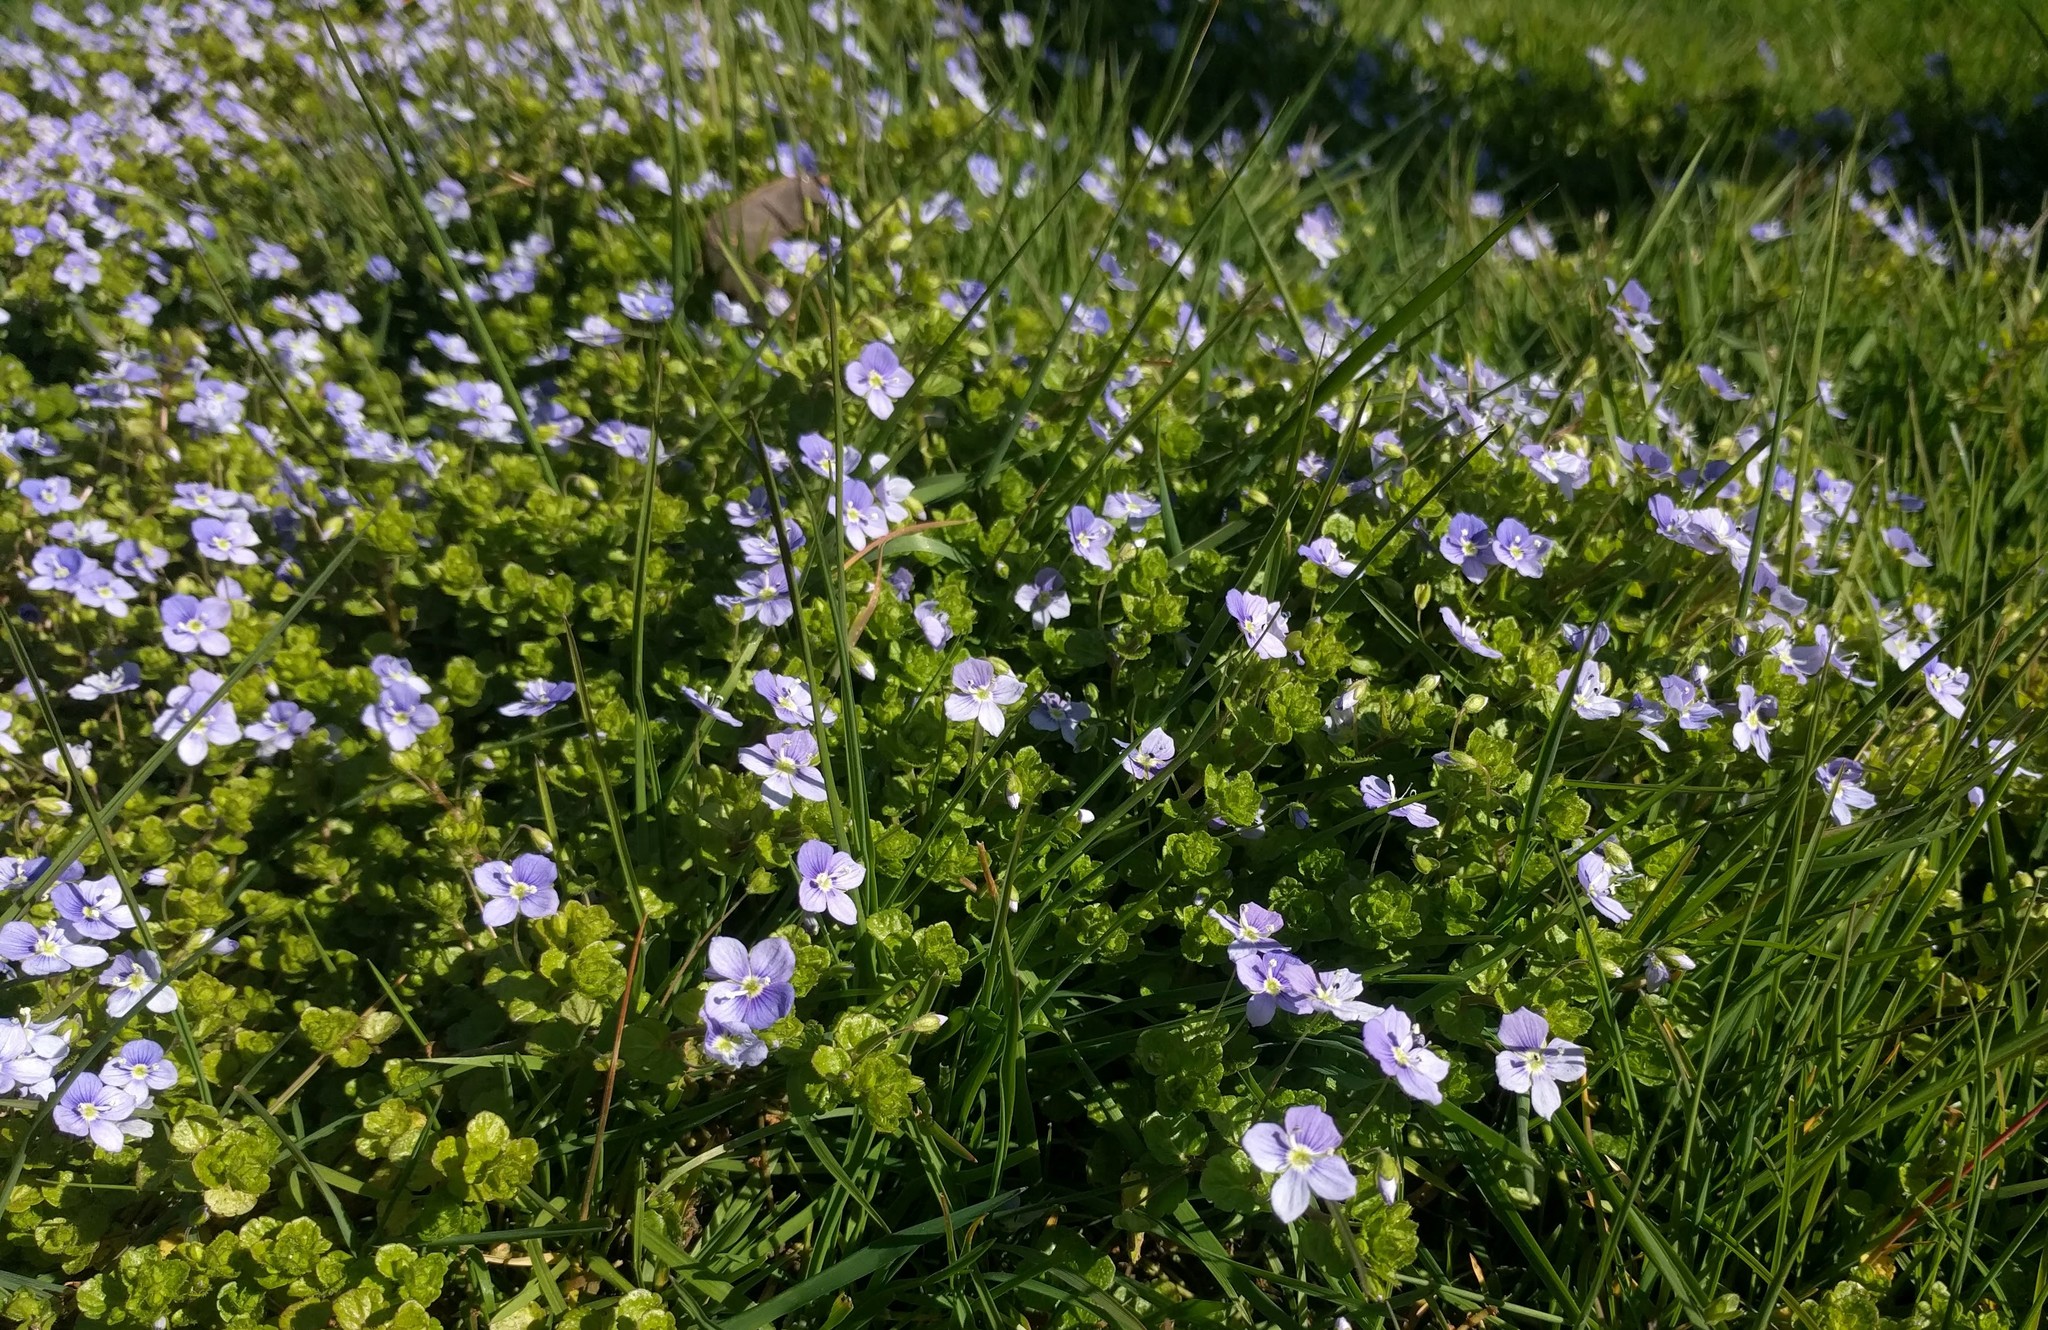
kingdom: Plantae
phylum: Tracheophyta
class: Magnoliopsida
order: Lamiales
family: Plantaginaceae
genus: Veronica
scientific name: Veronica filiformis
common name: Slender speedwell
